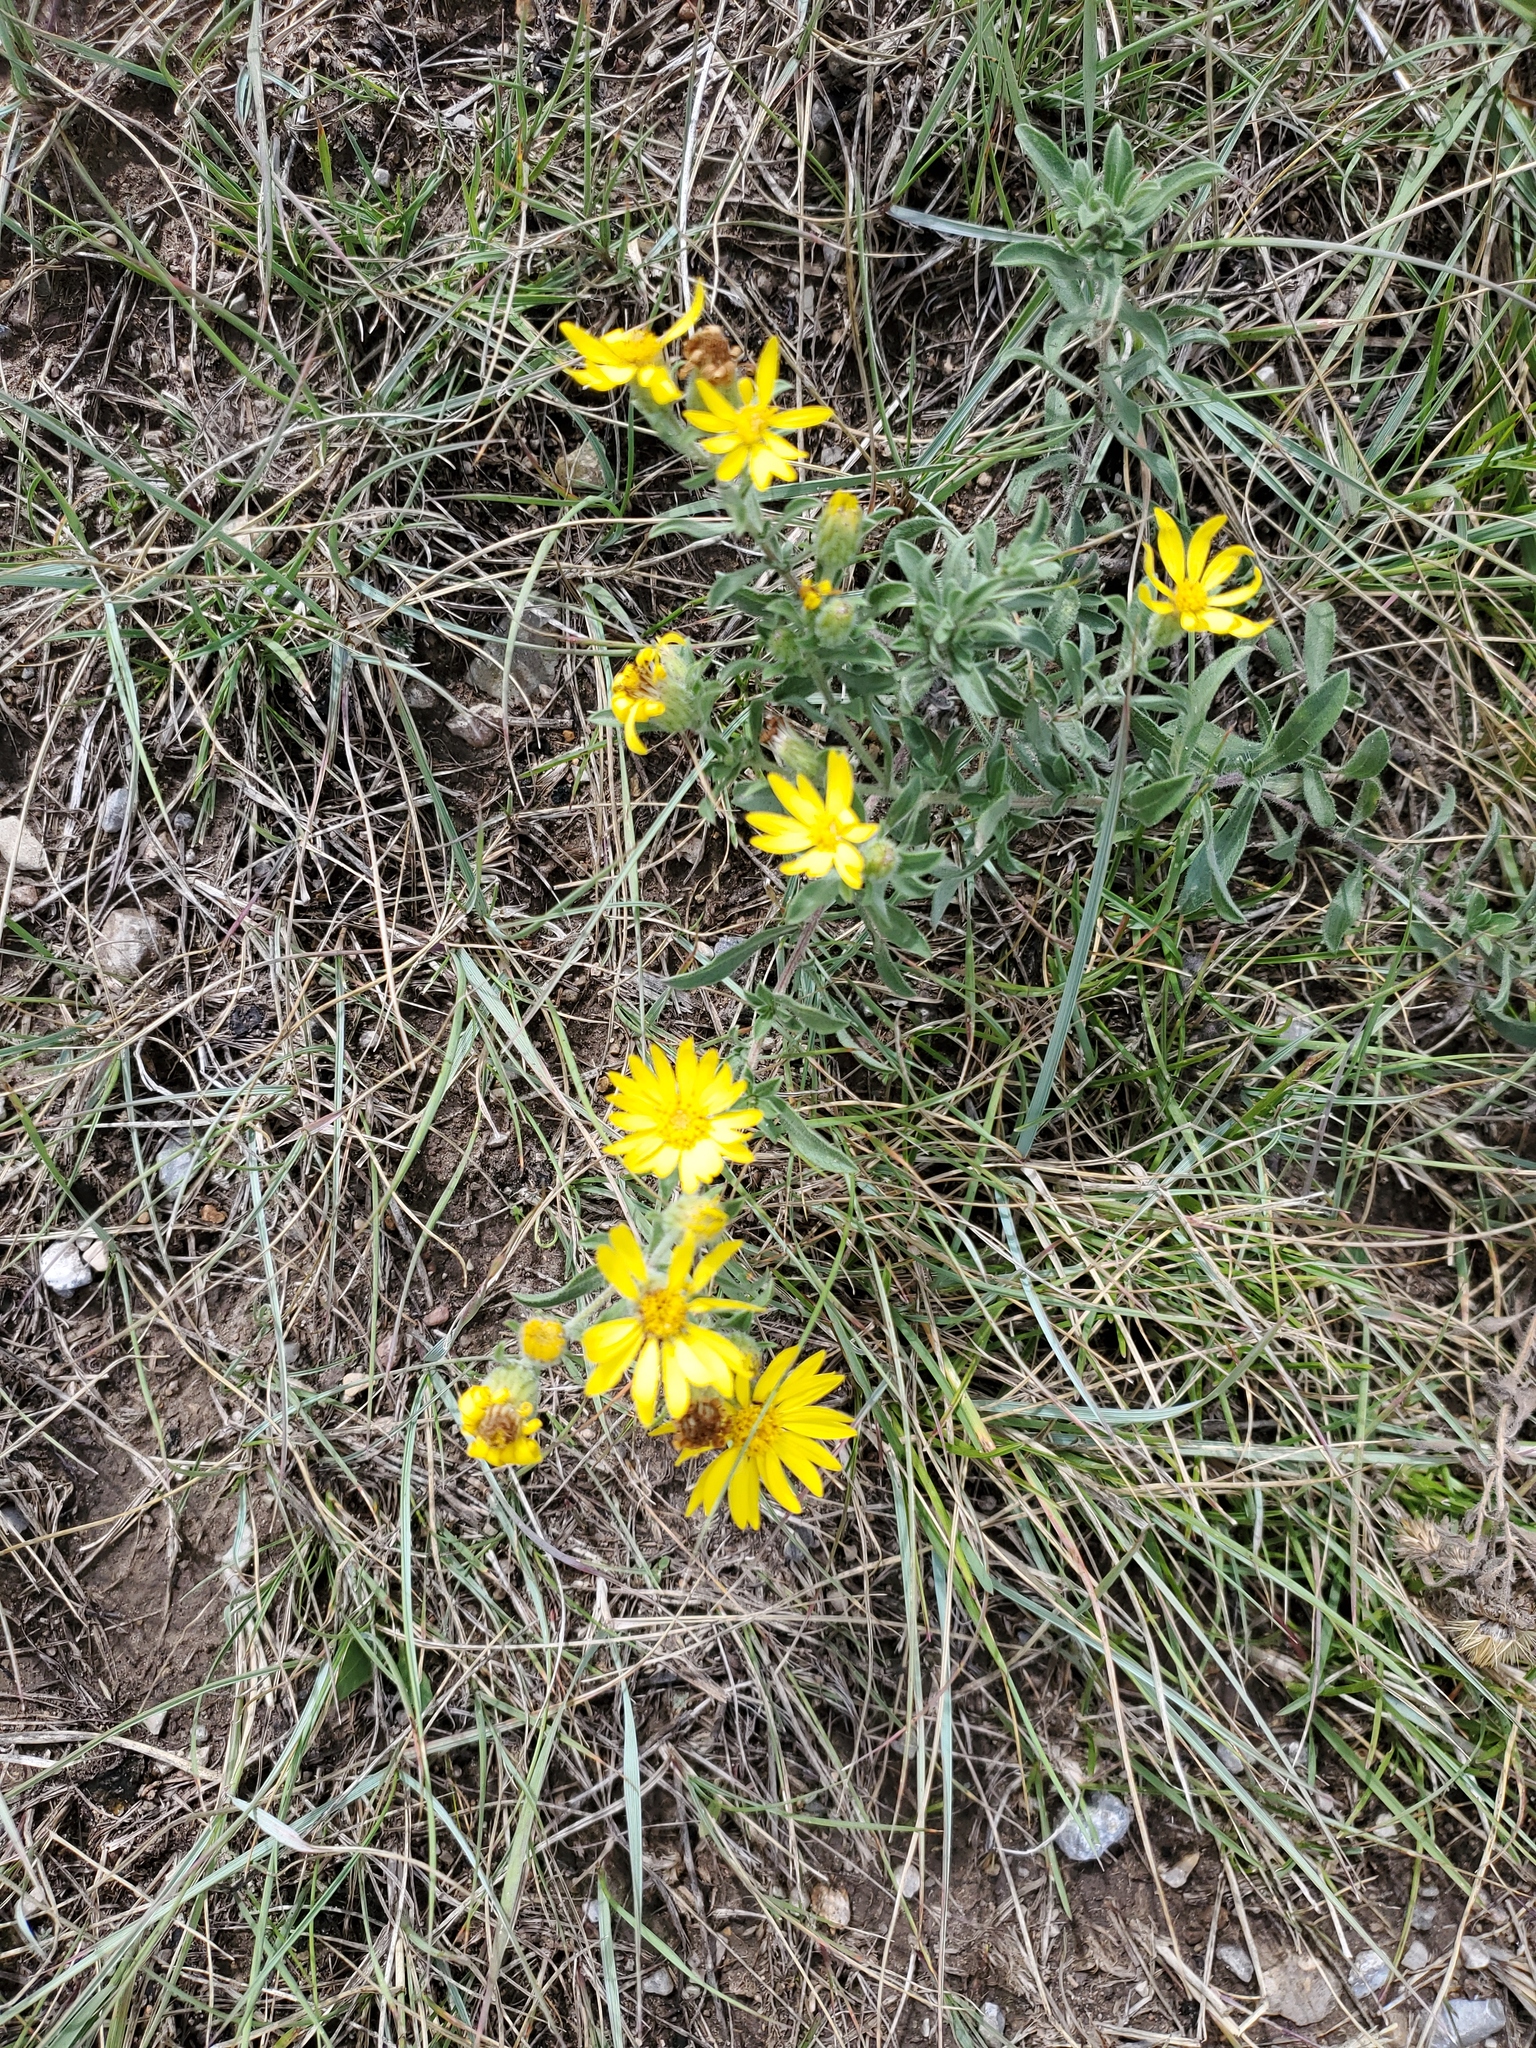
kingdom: Plantae
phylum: Tracheophyta
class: Magnoliopsida
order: Asterales
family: Asteraceae
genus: Heterotheca
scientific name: Heterotheca villosa
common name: Hairy false goldenaster
